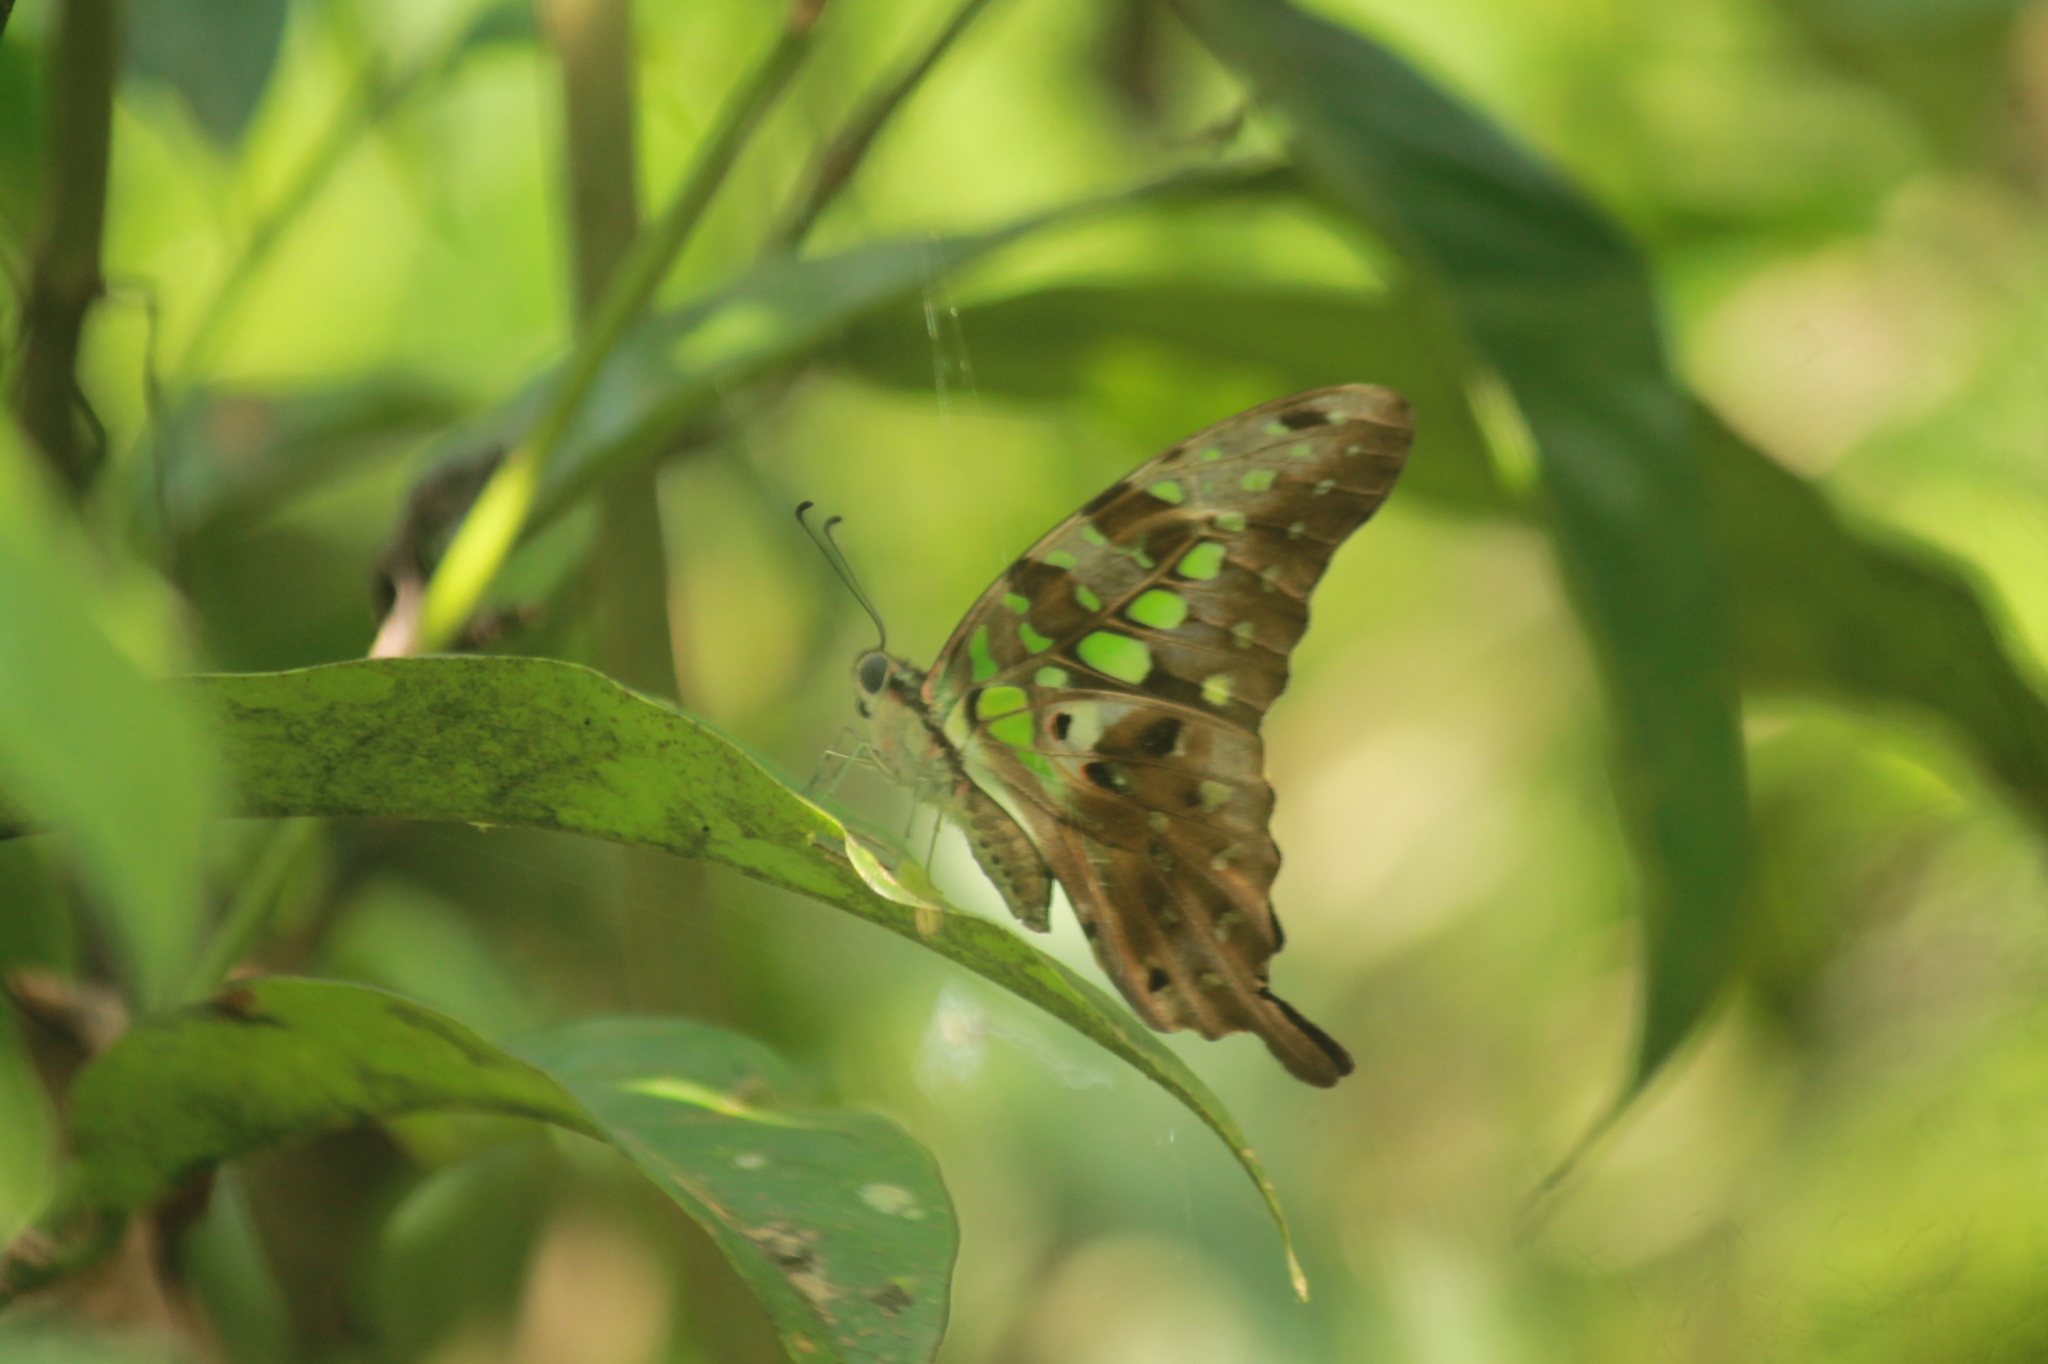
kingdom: Animalia
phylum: Arthropoda
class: Insecta
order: Lepidoptera
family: Papilionidae
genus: Graphium
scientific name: Graphium agamemnon
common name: Tailed jay
